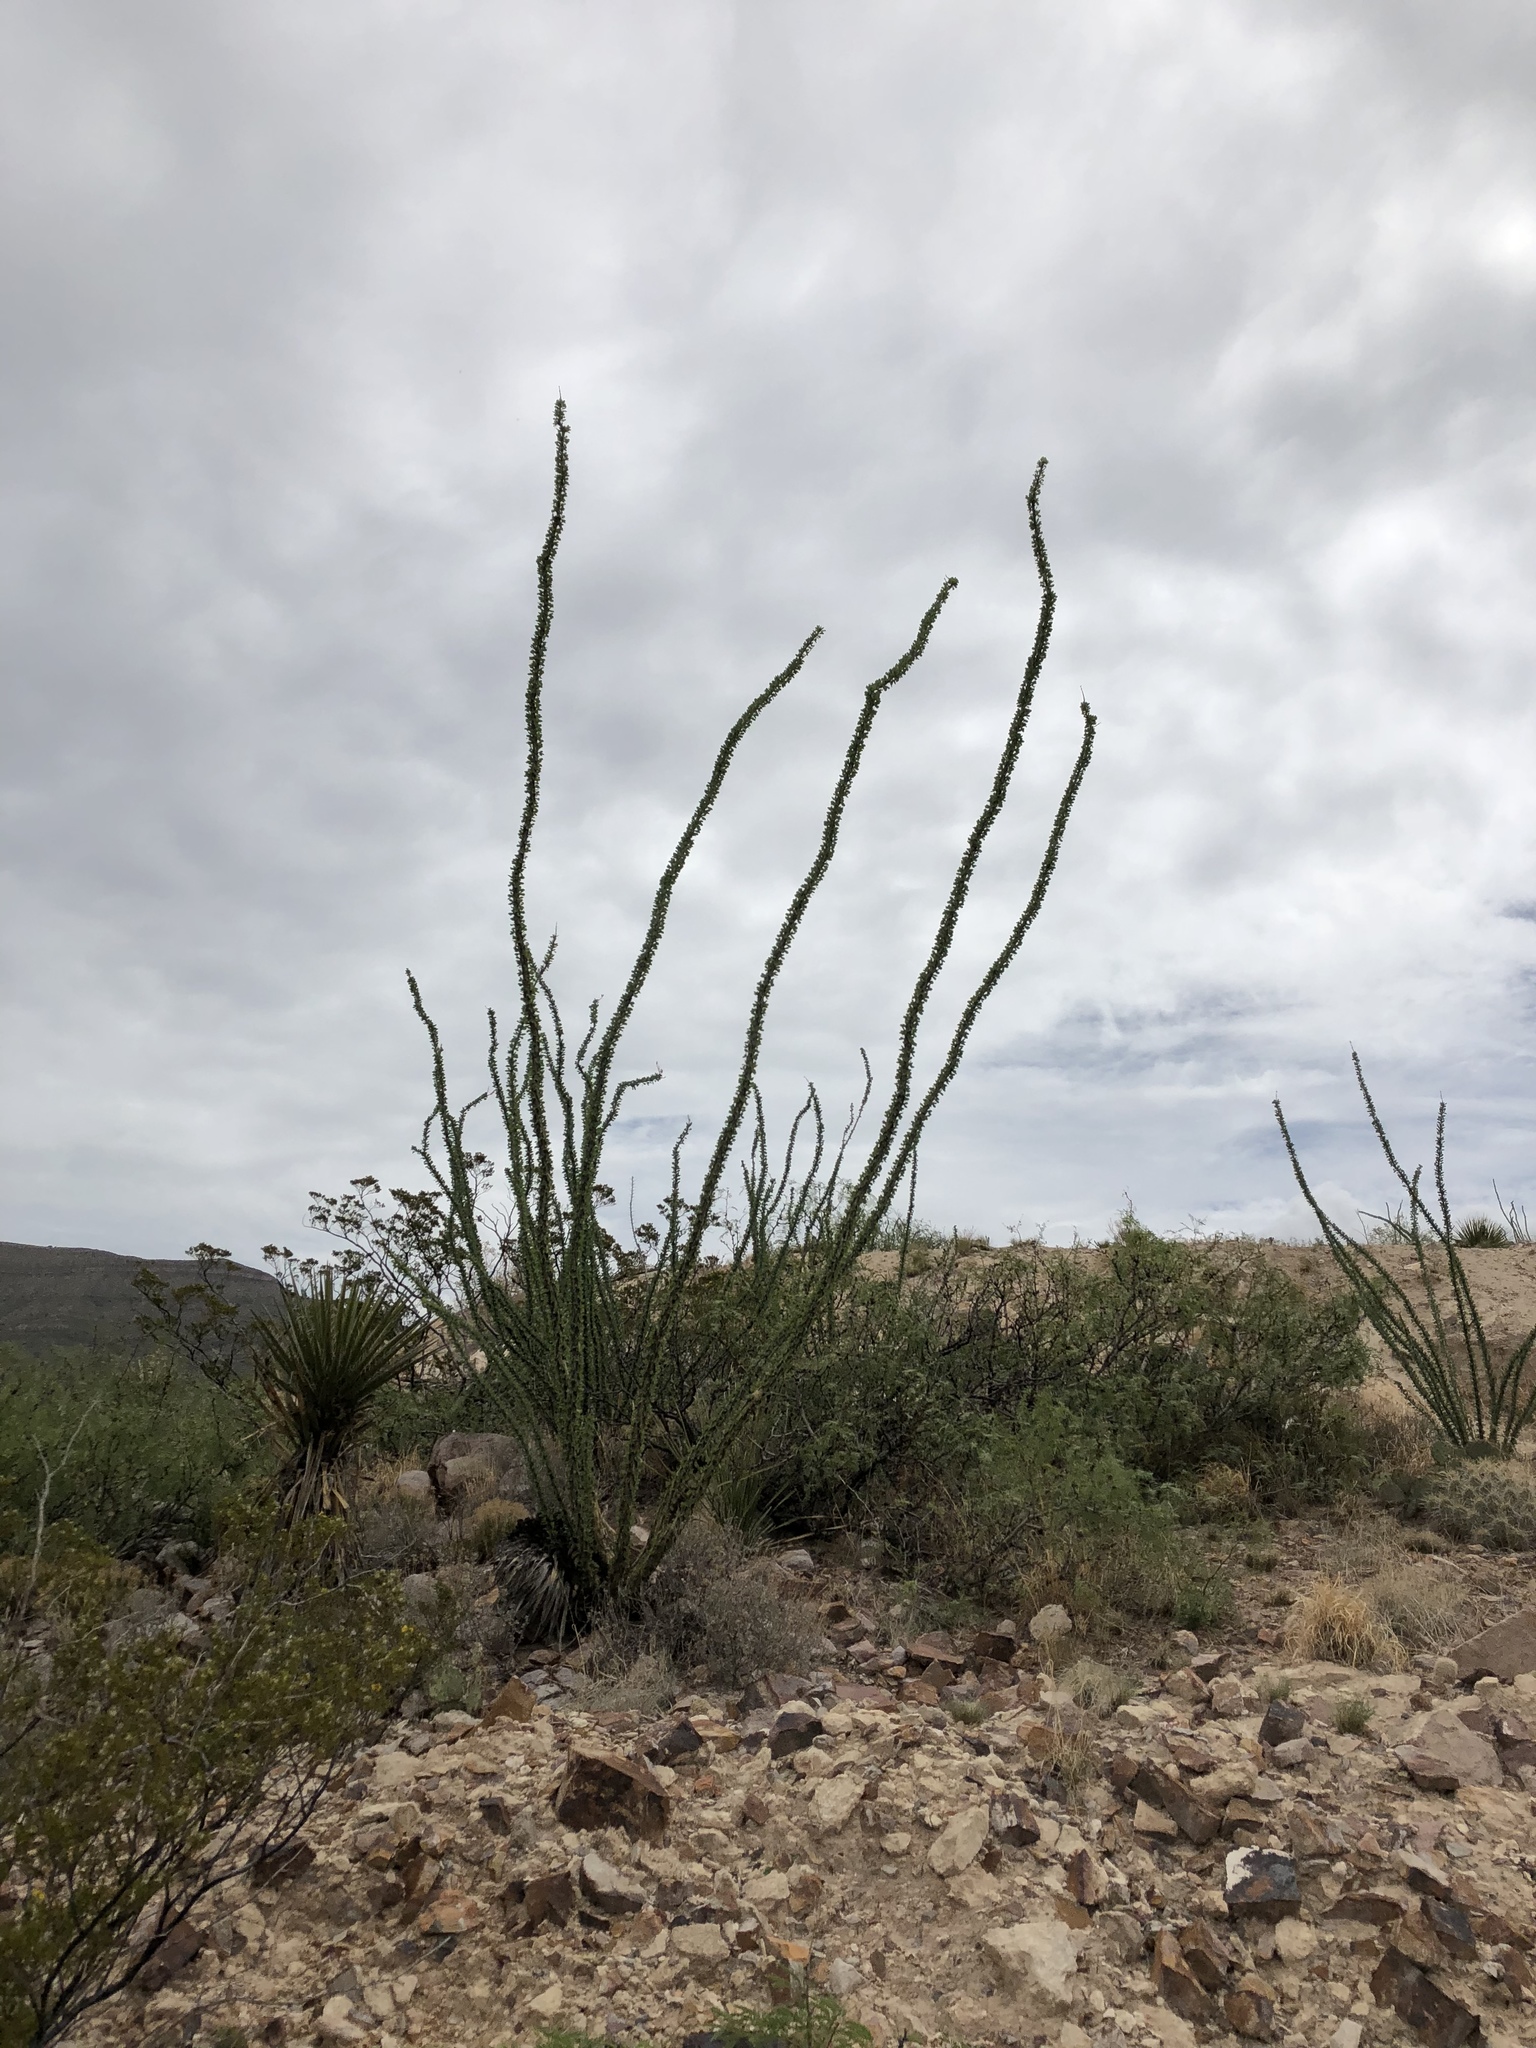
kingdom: Plantae
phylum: Tracheophyta
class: Magnoliopsida
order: Ericales
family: Fouquieriaceae
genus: Fouquieria
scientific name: Fouquieria splendens
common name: Vine-cactus
